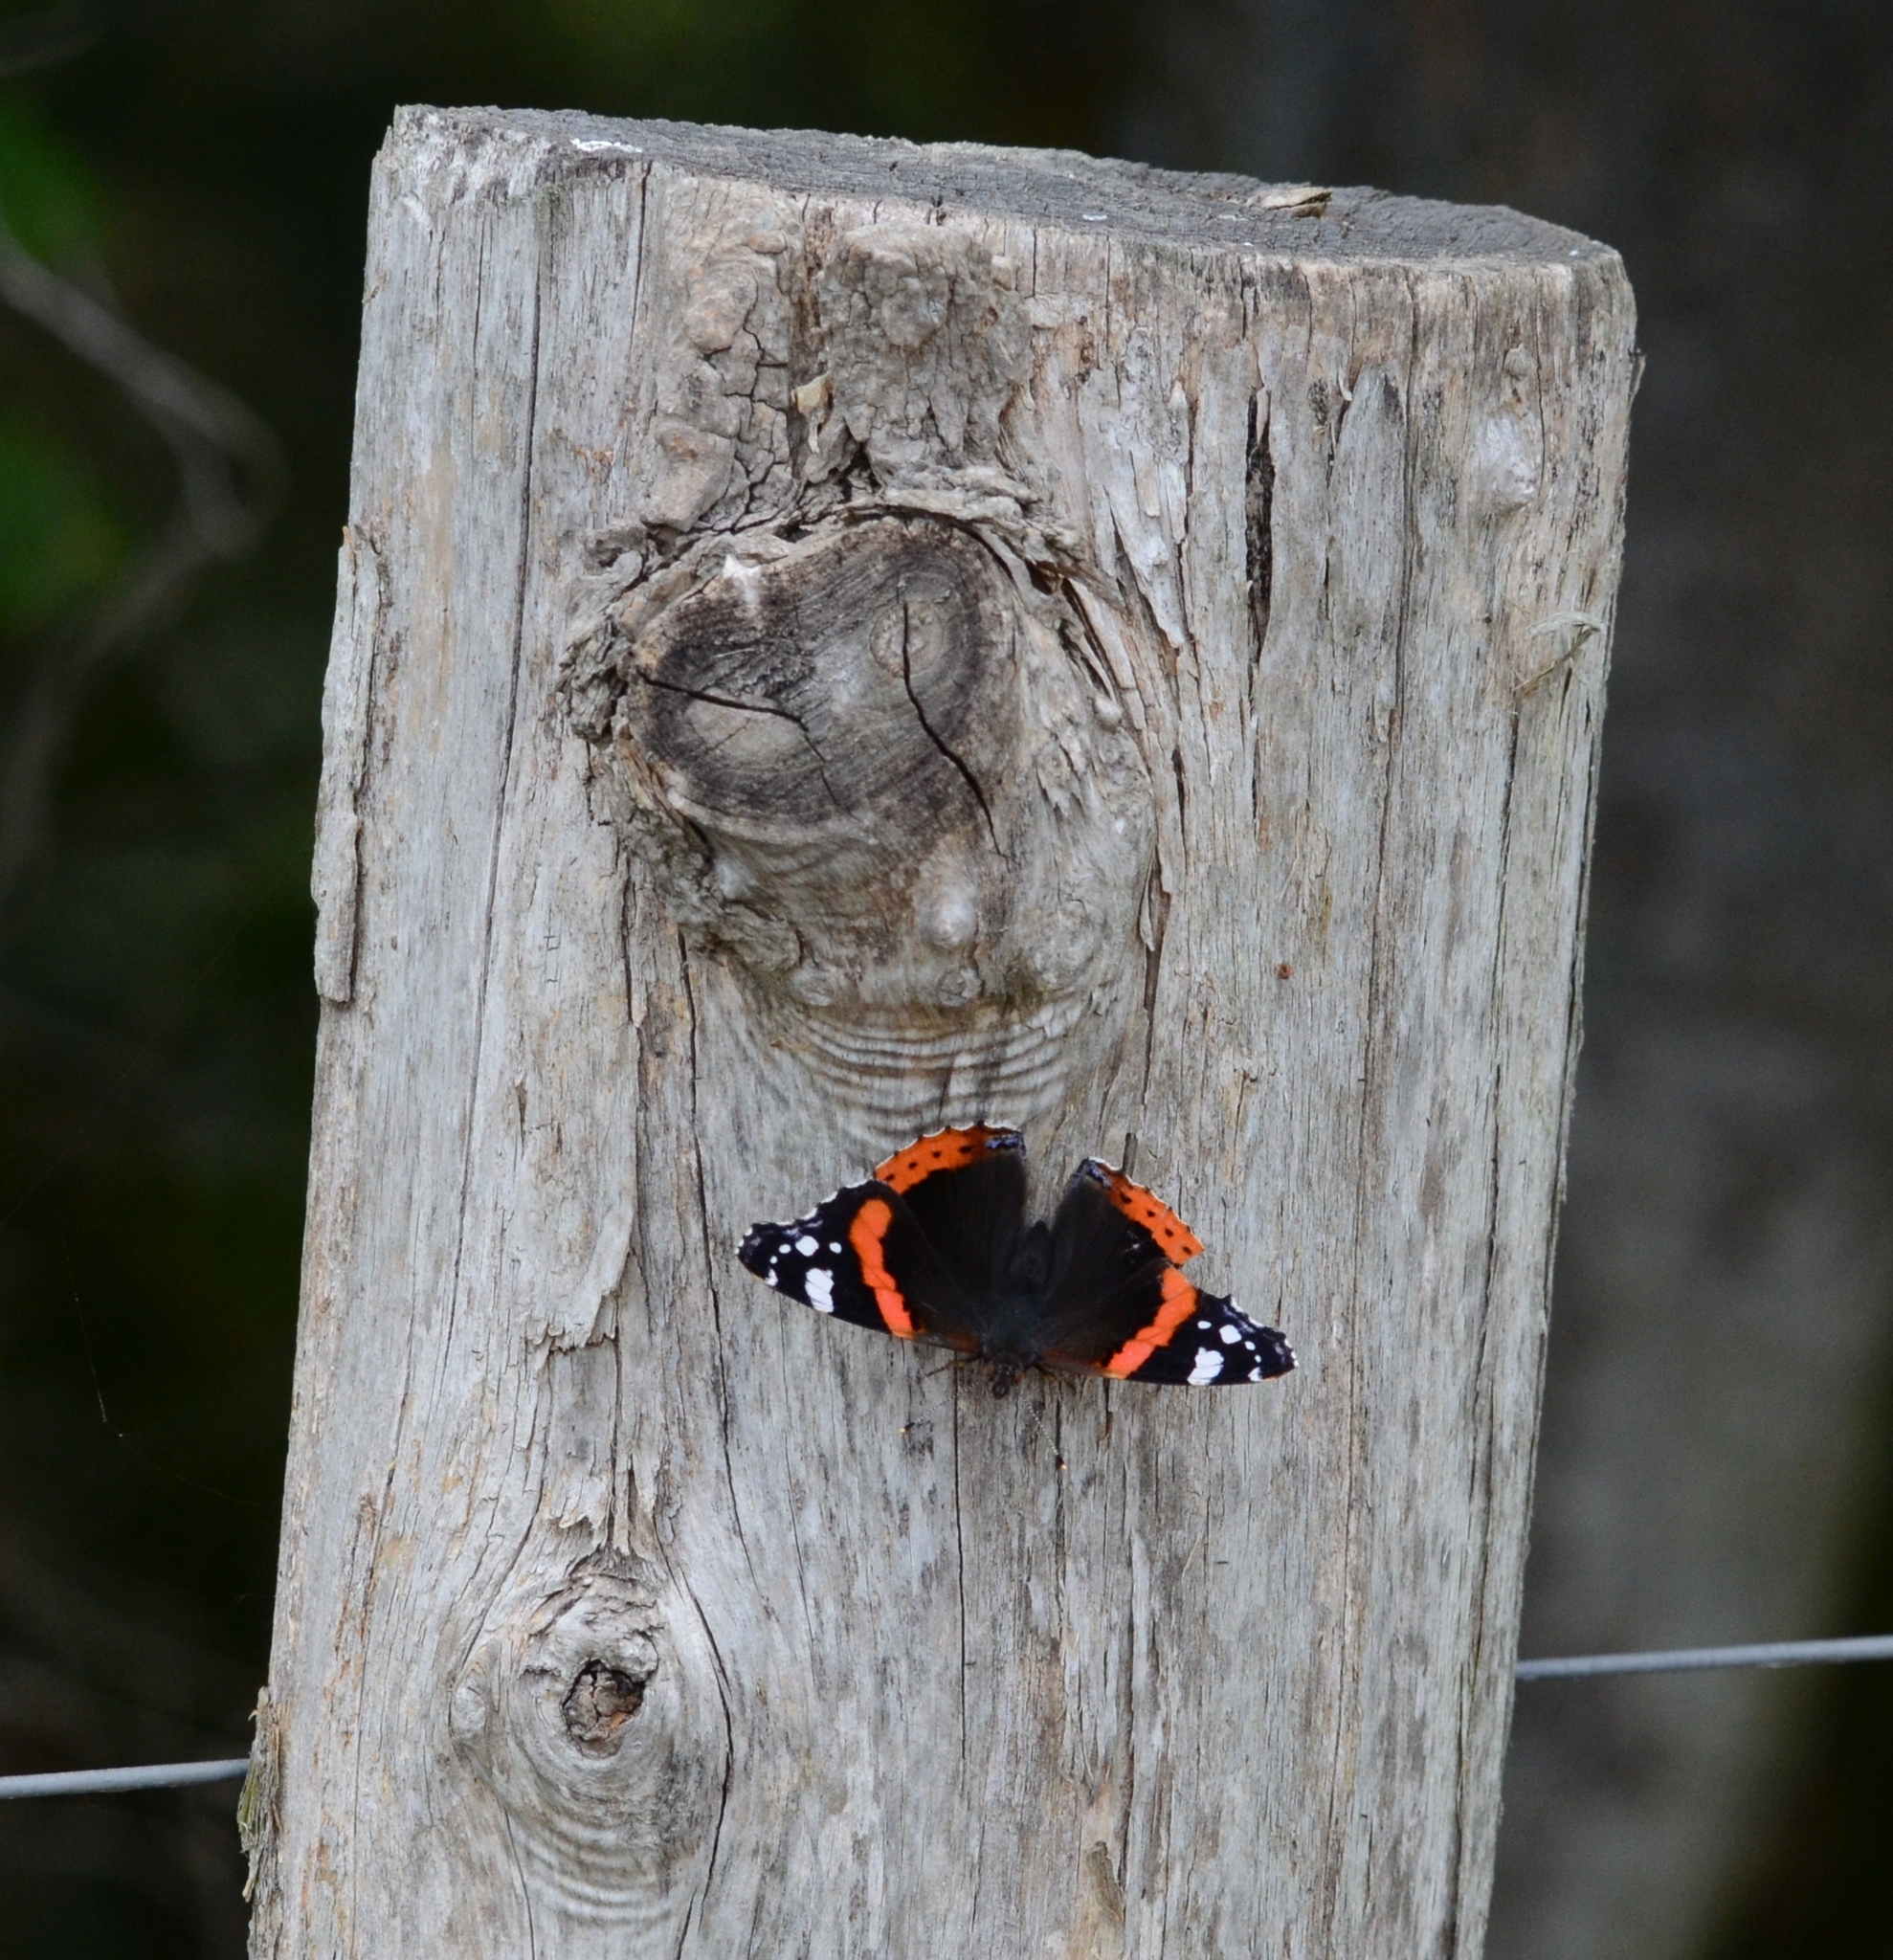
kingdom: Animalia
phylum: Arthropoda
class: Insecta
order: Lepidoptera
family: Nymphalidae
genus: Vanessa
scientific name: Vanessa atalanta
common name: Red admiral
